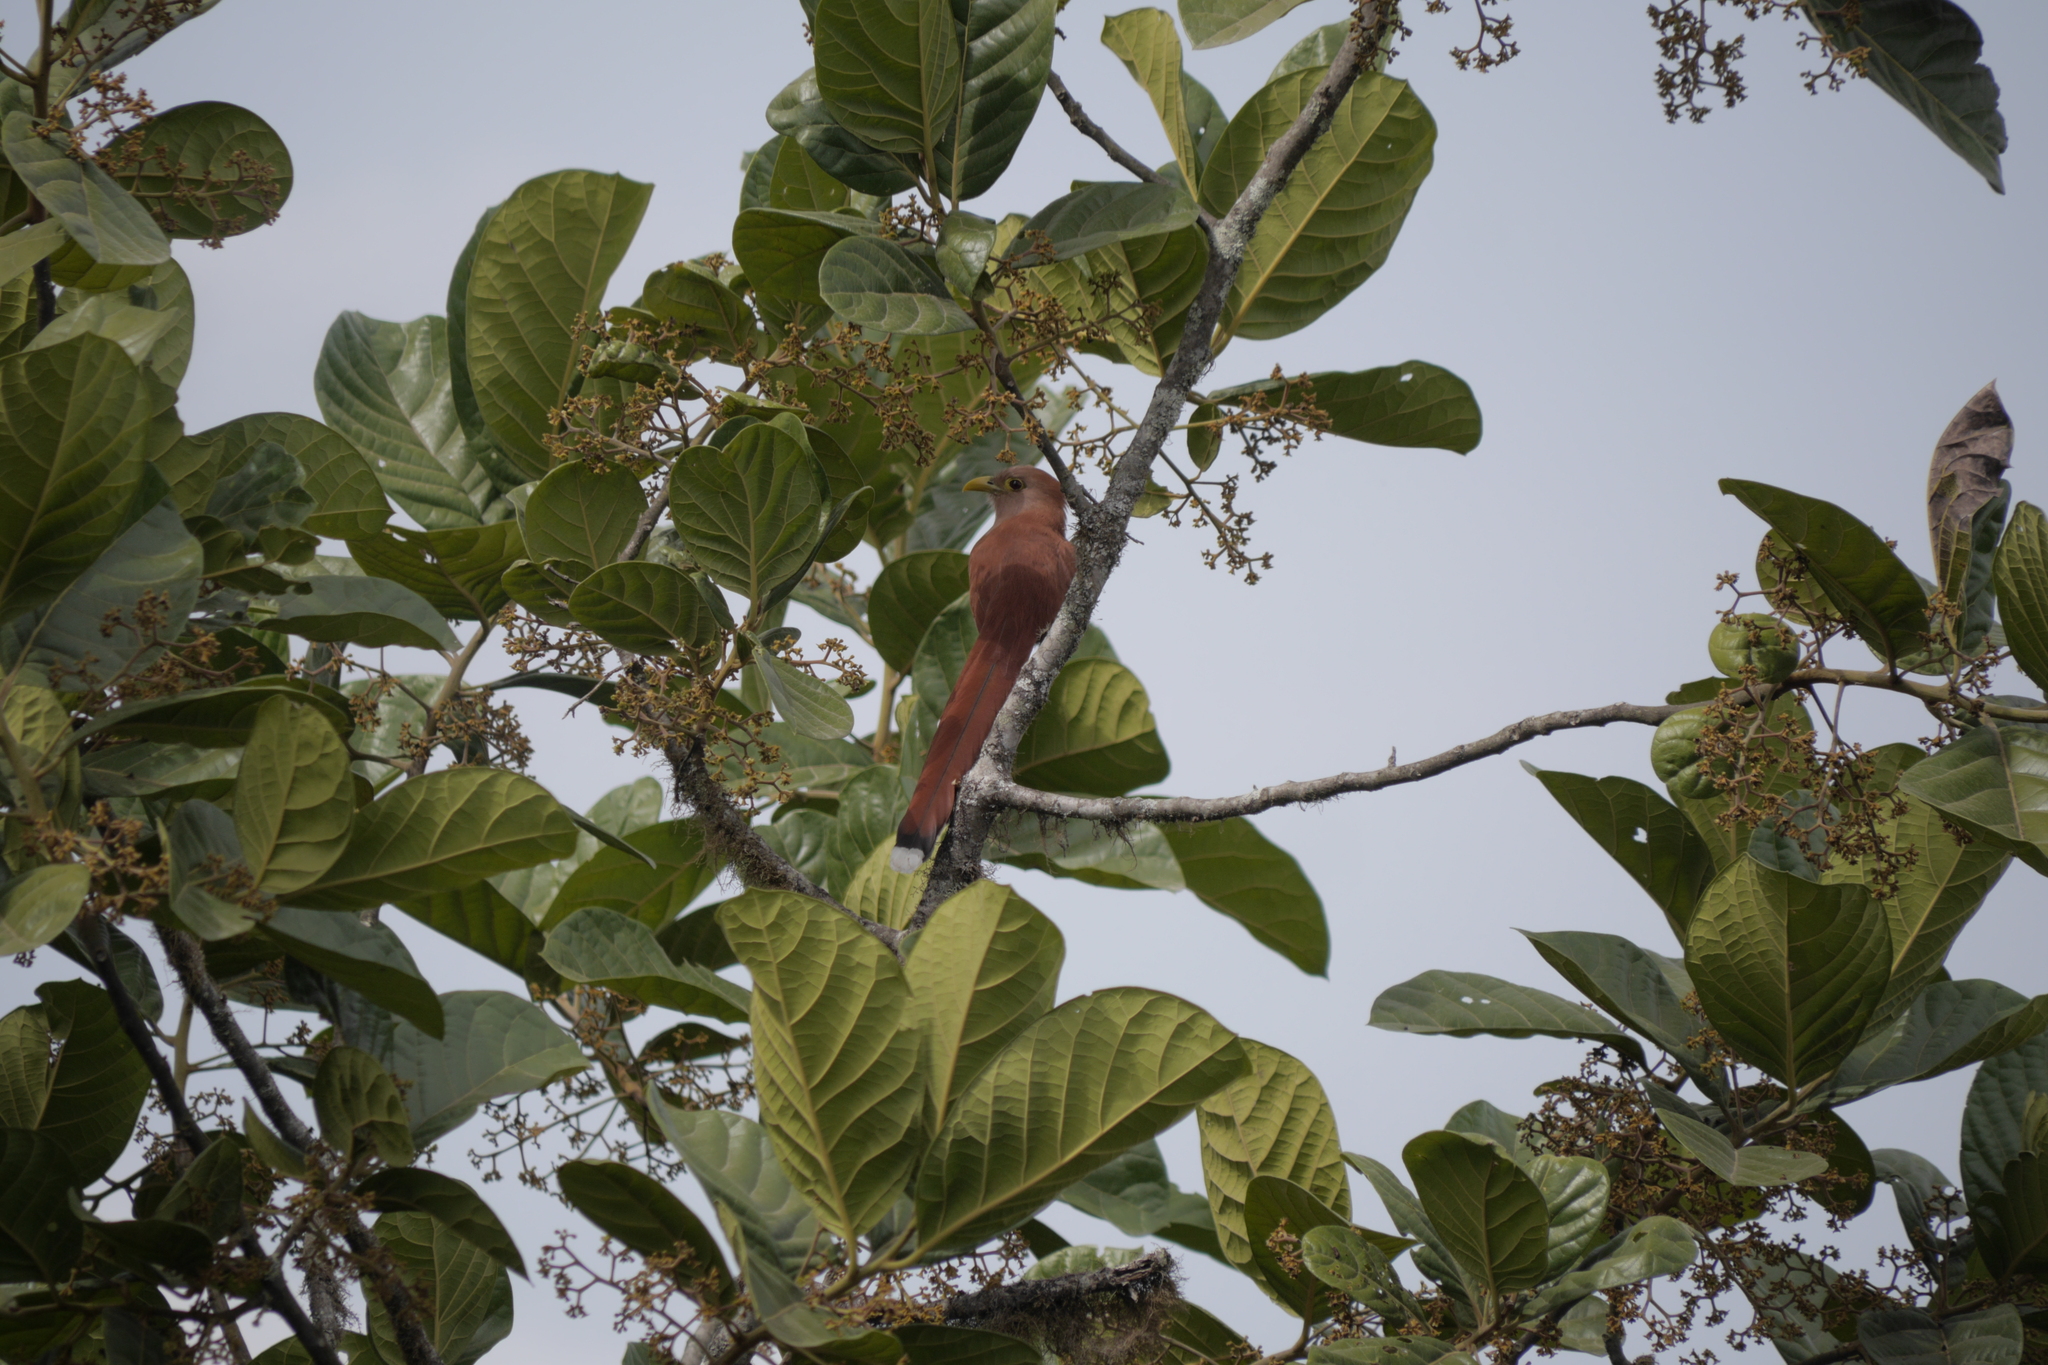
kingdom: Animalia
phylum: Chordata
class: Aves
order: Cuculiformes
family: Cuculidae
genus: Piaya
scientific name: Piaya cayana
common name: Squirrel cuckoo
